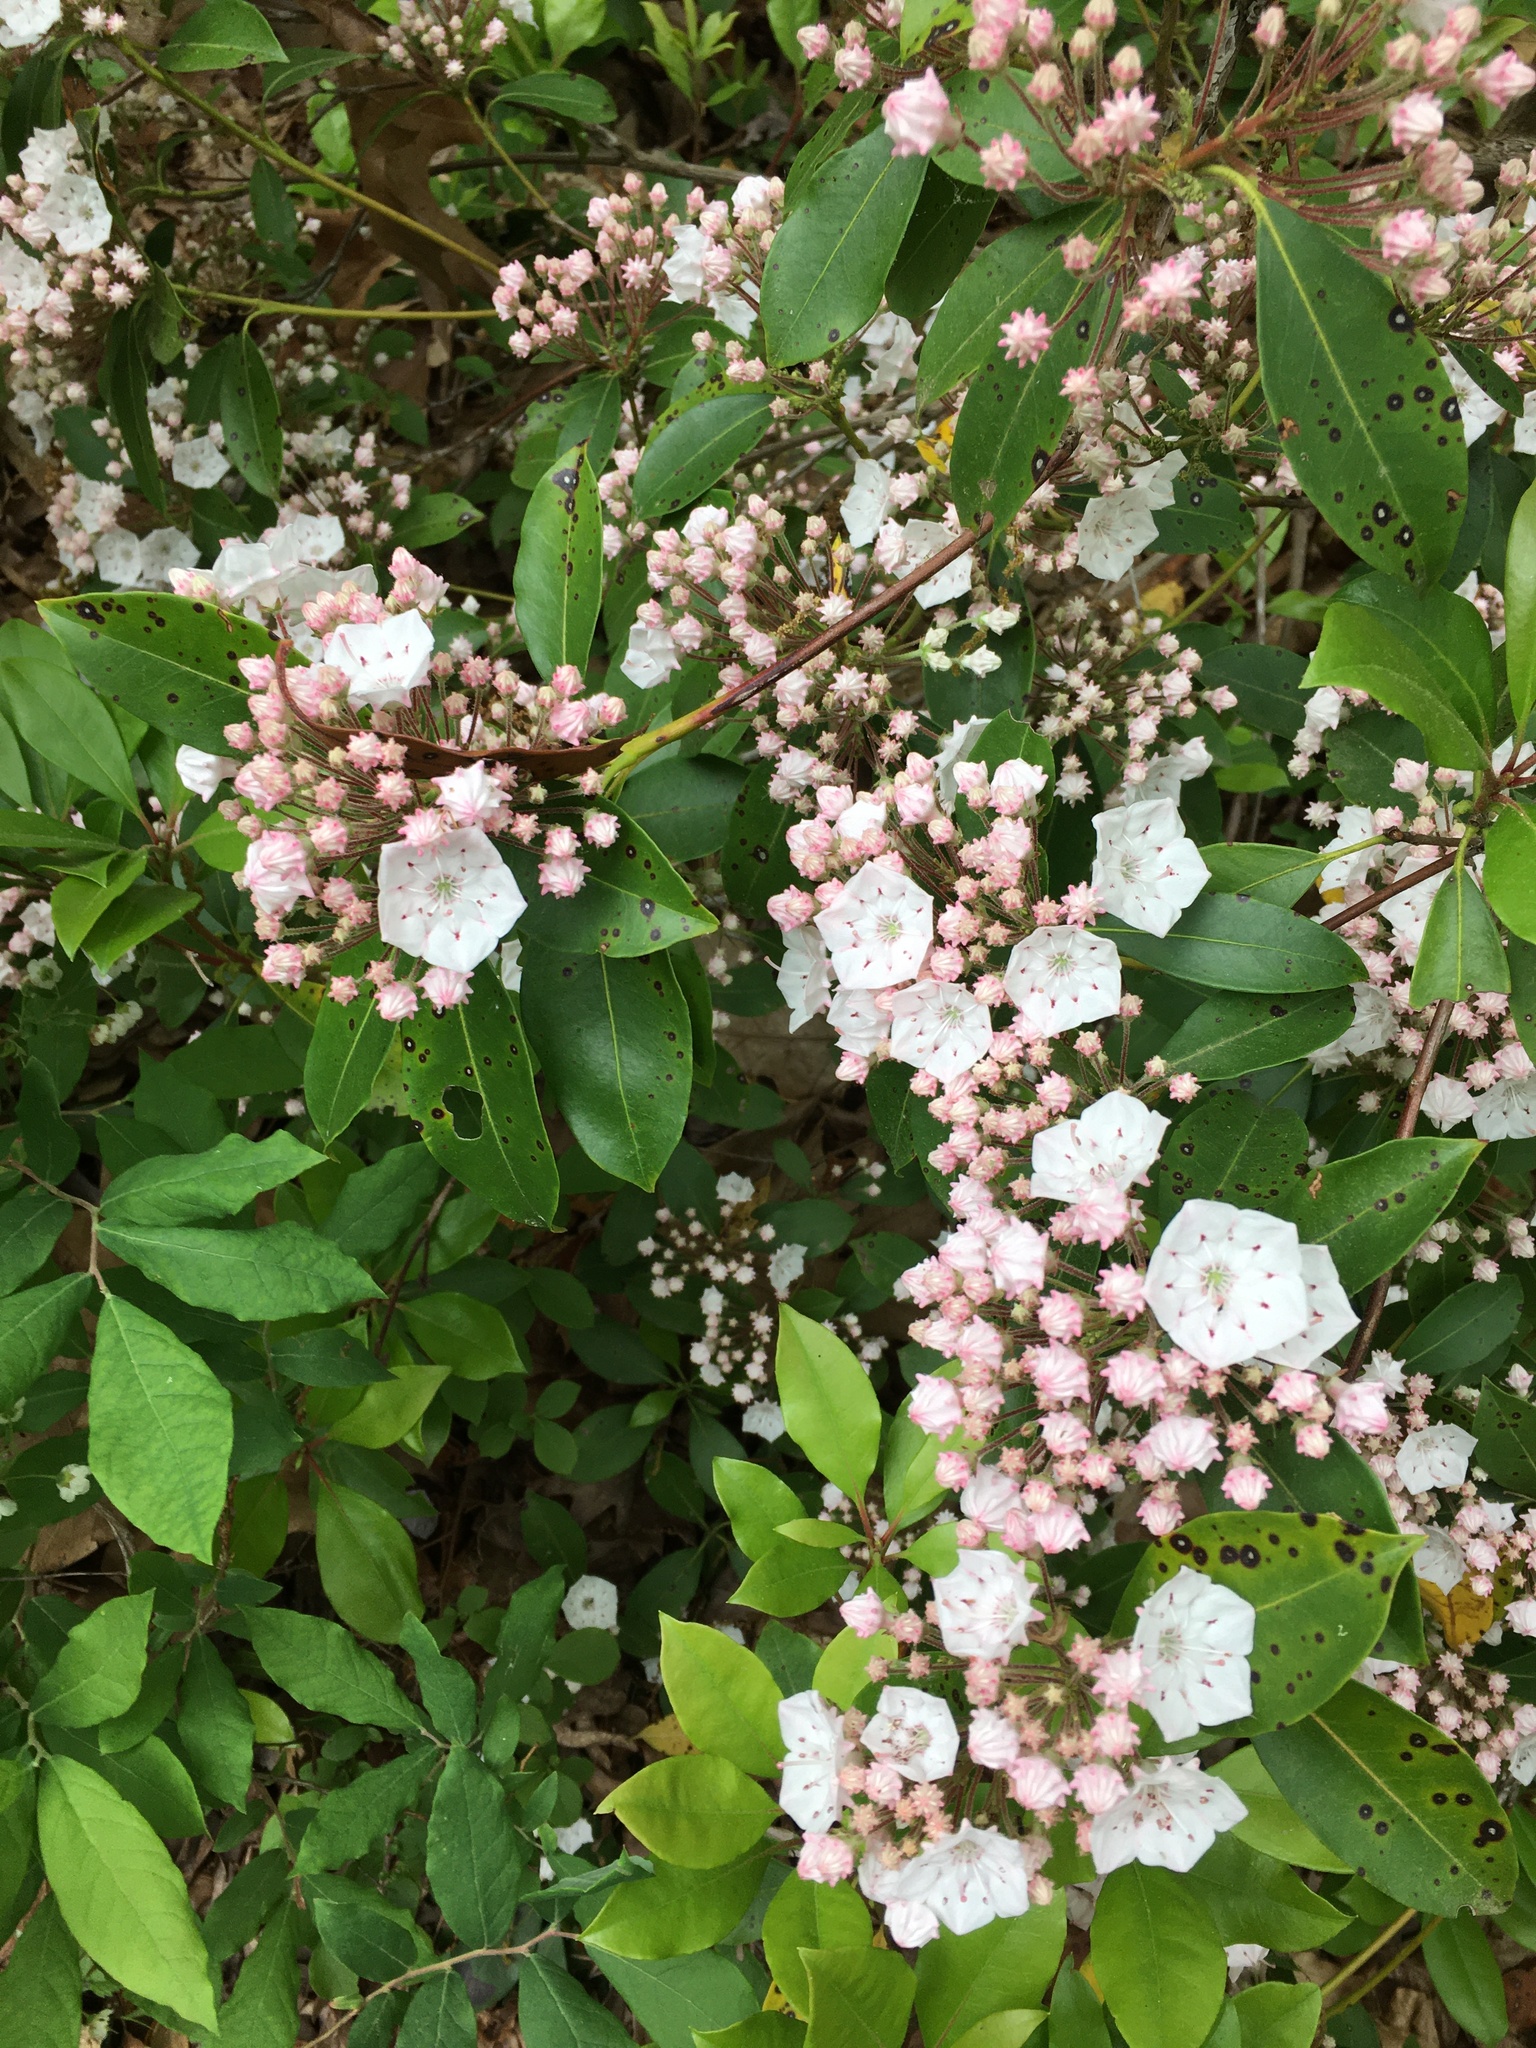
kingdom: Plantae
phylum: Tracheophyta
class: Magnoliopsida
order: Ericales
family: Ericaceae
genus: Kalmia
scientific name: Kalmia latifolia
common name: Mountain-laurel
